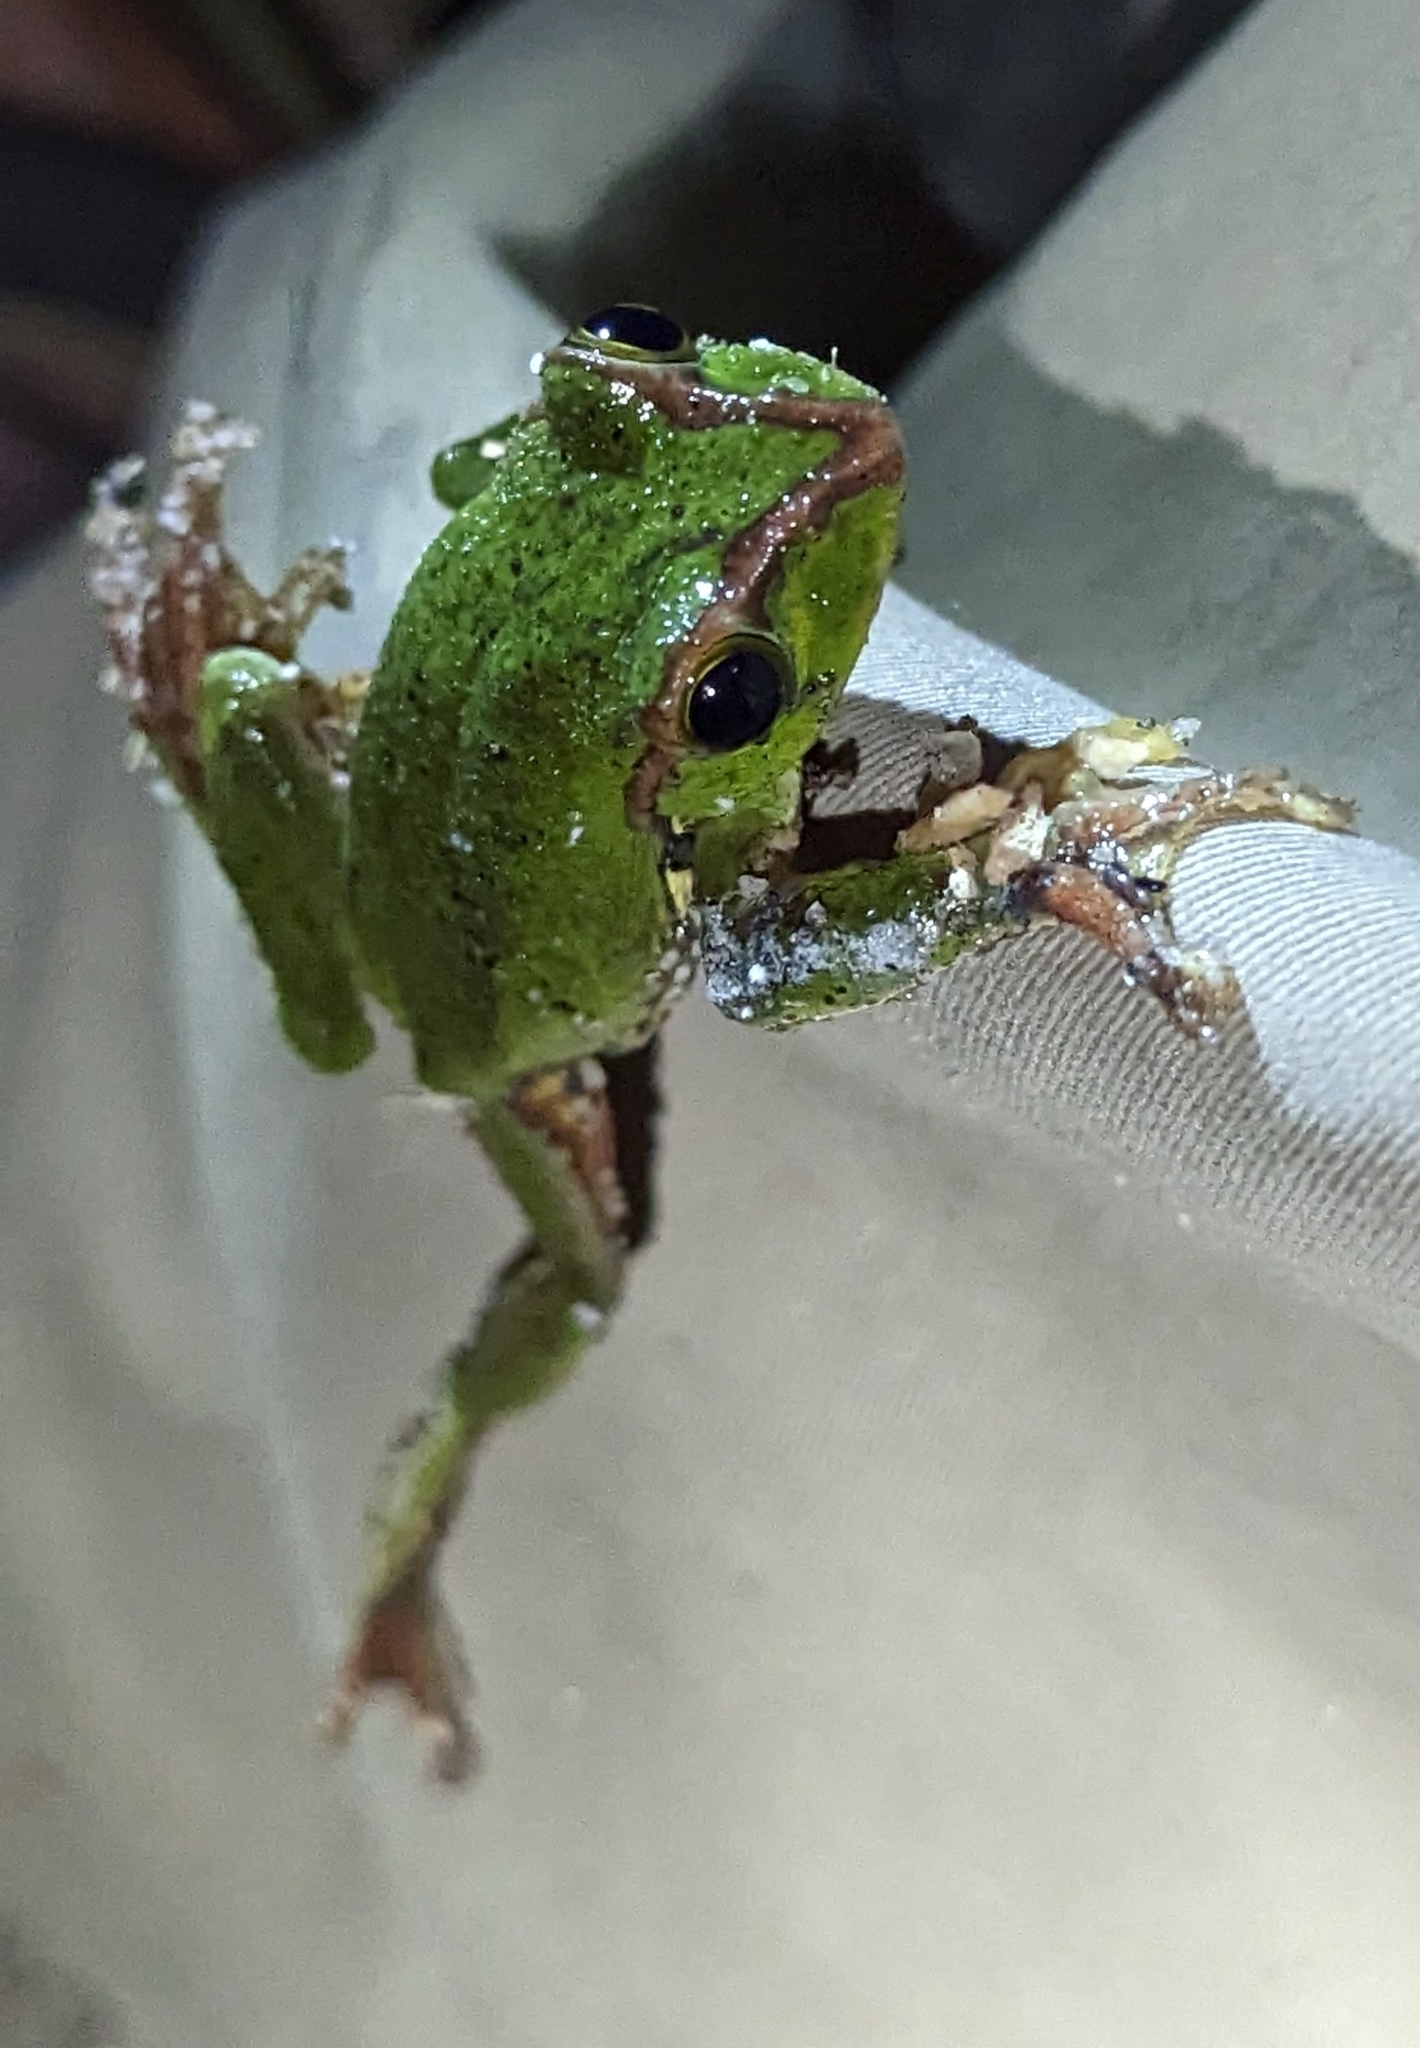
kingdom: Animalia
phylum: Chordata
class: Amphibia
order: Anura
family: Rhacophoridae
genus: Zhangixalus
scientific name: Zhangixalus burmanus
